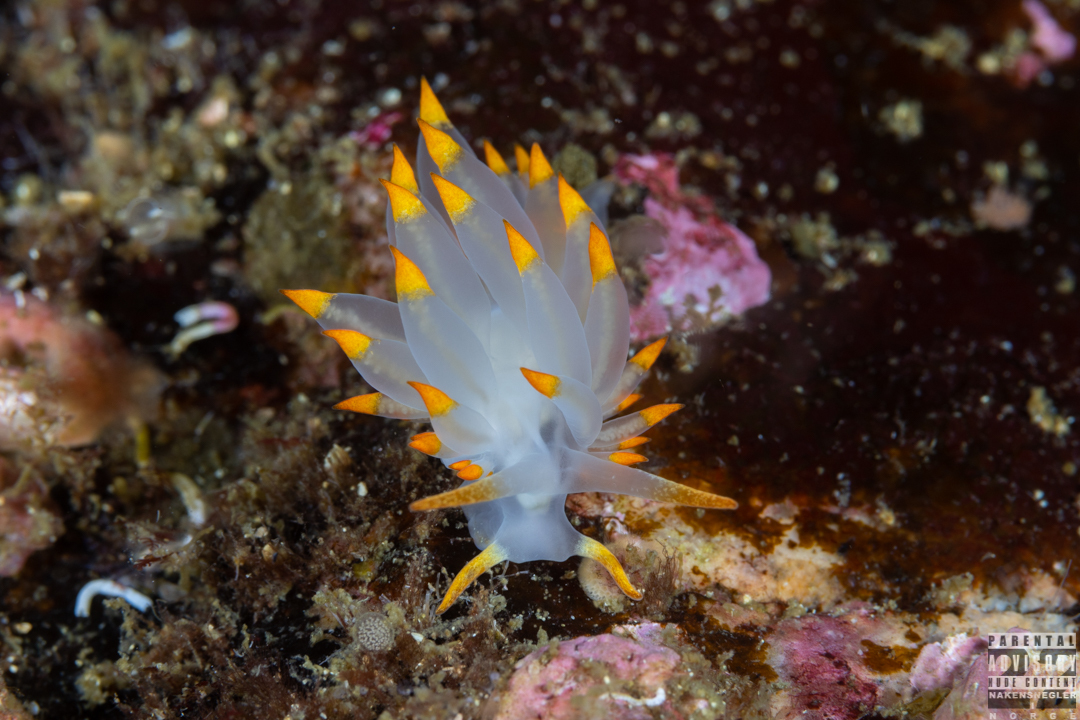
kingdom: Animalia
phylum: Mollusca
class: Gastropoda
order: Nudibranchia
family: Eubranchidae
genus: Amphorina
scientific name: Amphorina farrani
